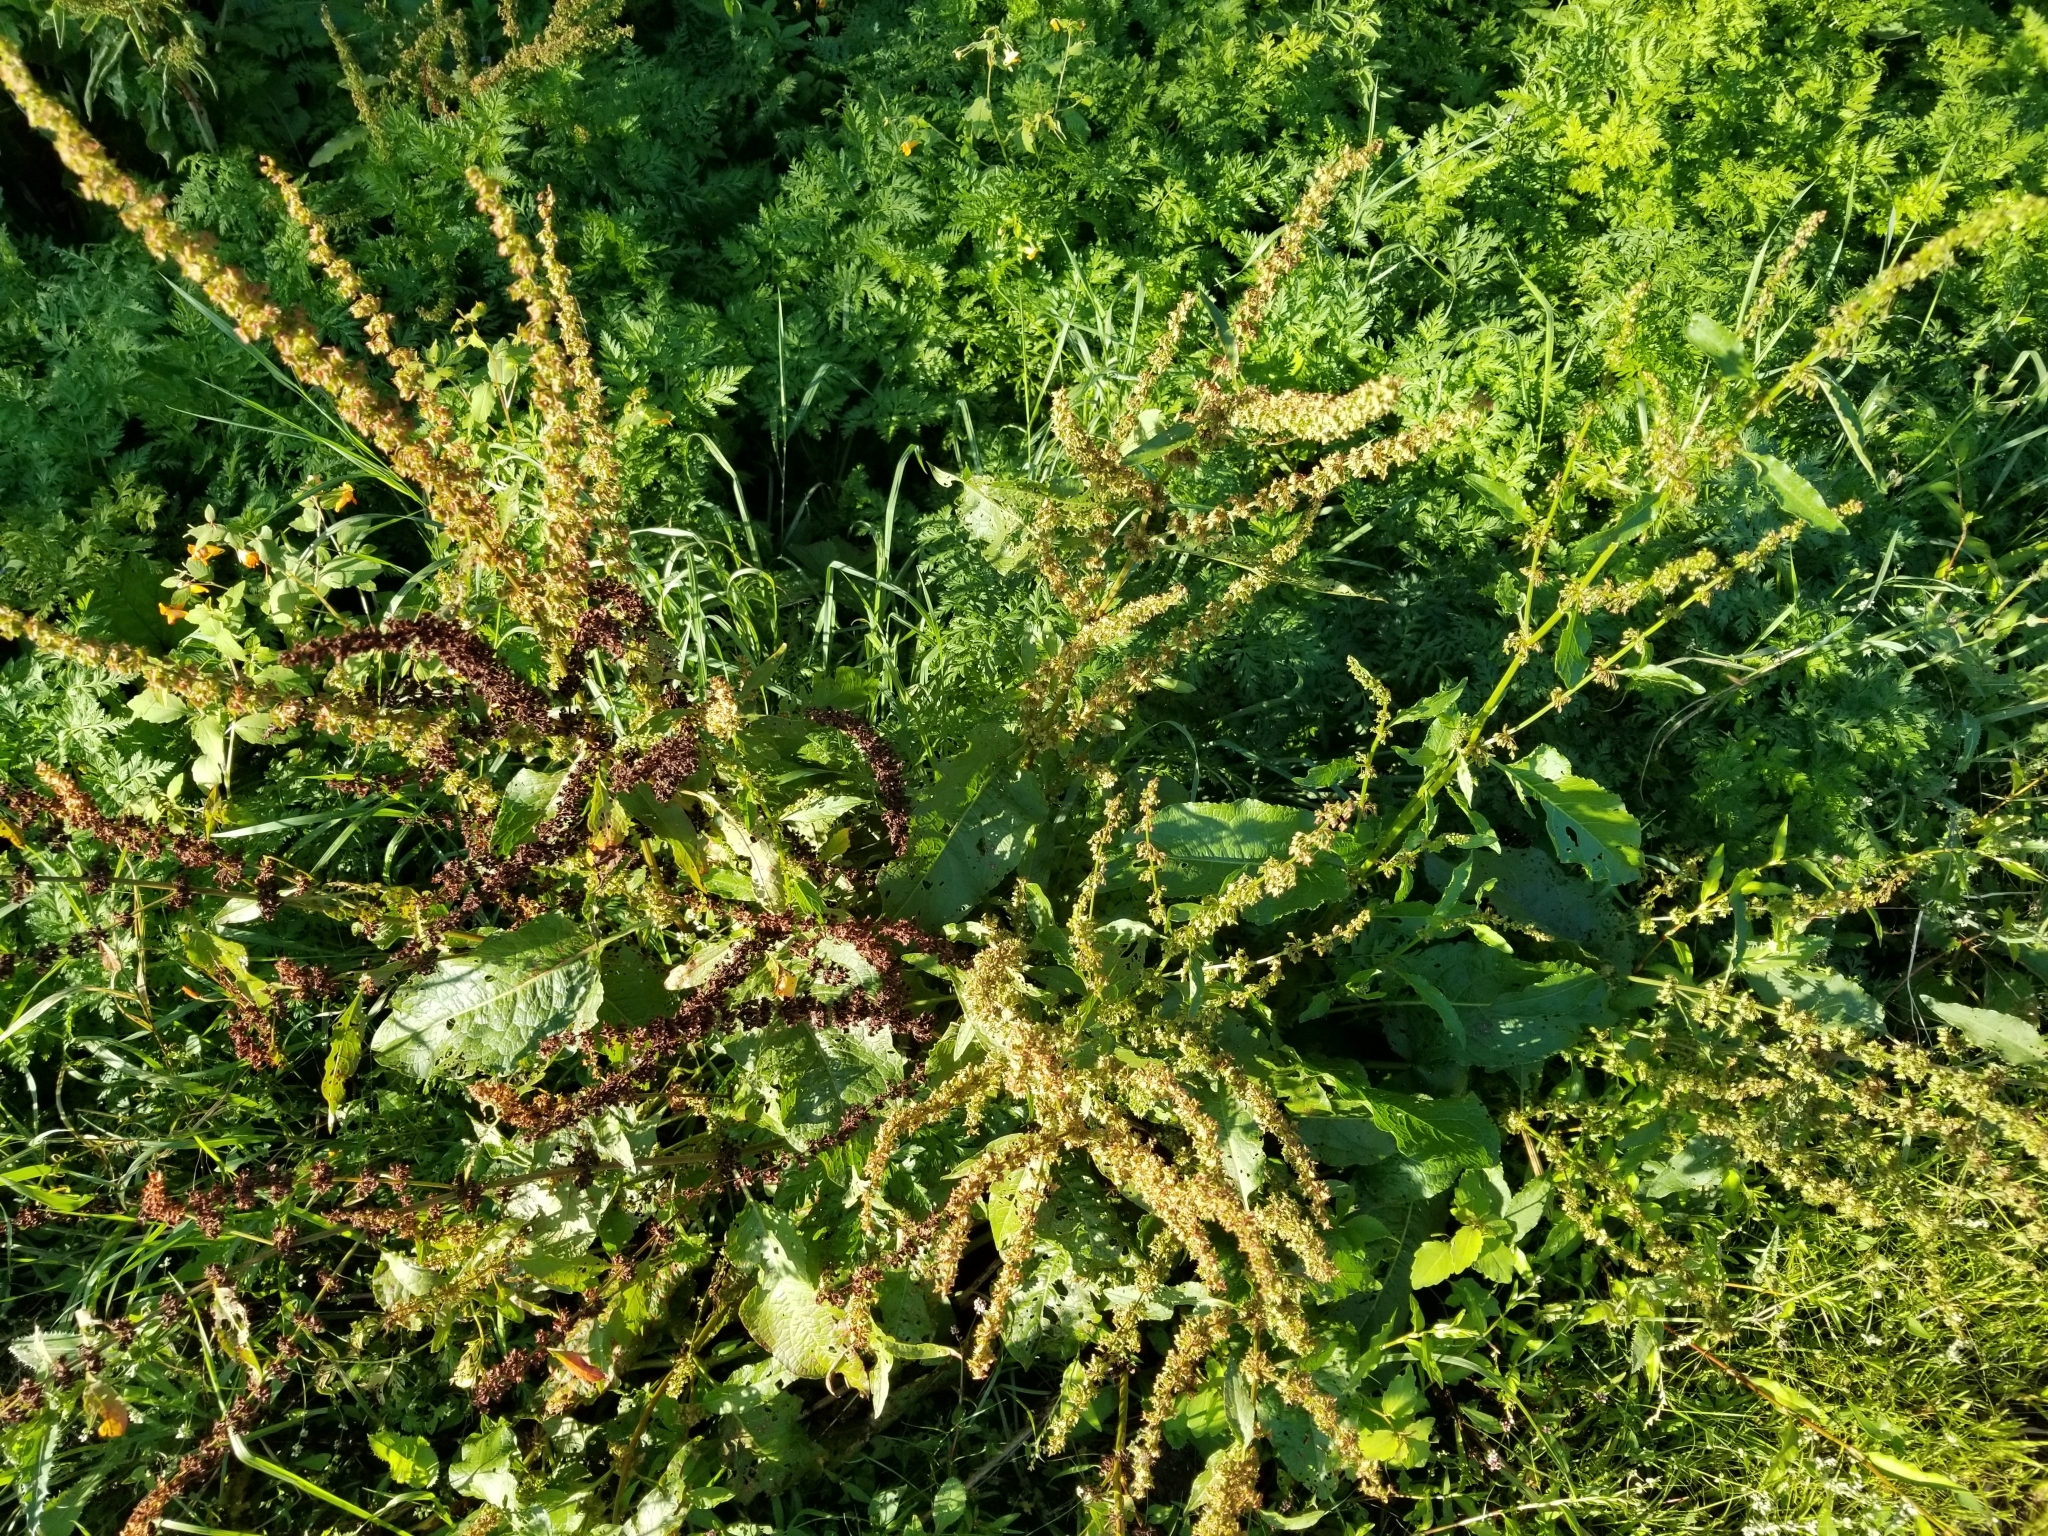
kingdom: Plantae
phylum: Tracheophyta
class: Magnoliopsida
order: Caryophyllales
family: Polygonaceae
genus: Rumex
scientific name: Rumex obtusifolius
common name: Bitter dock
